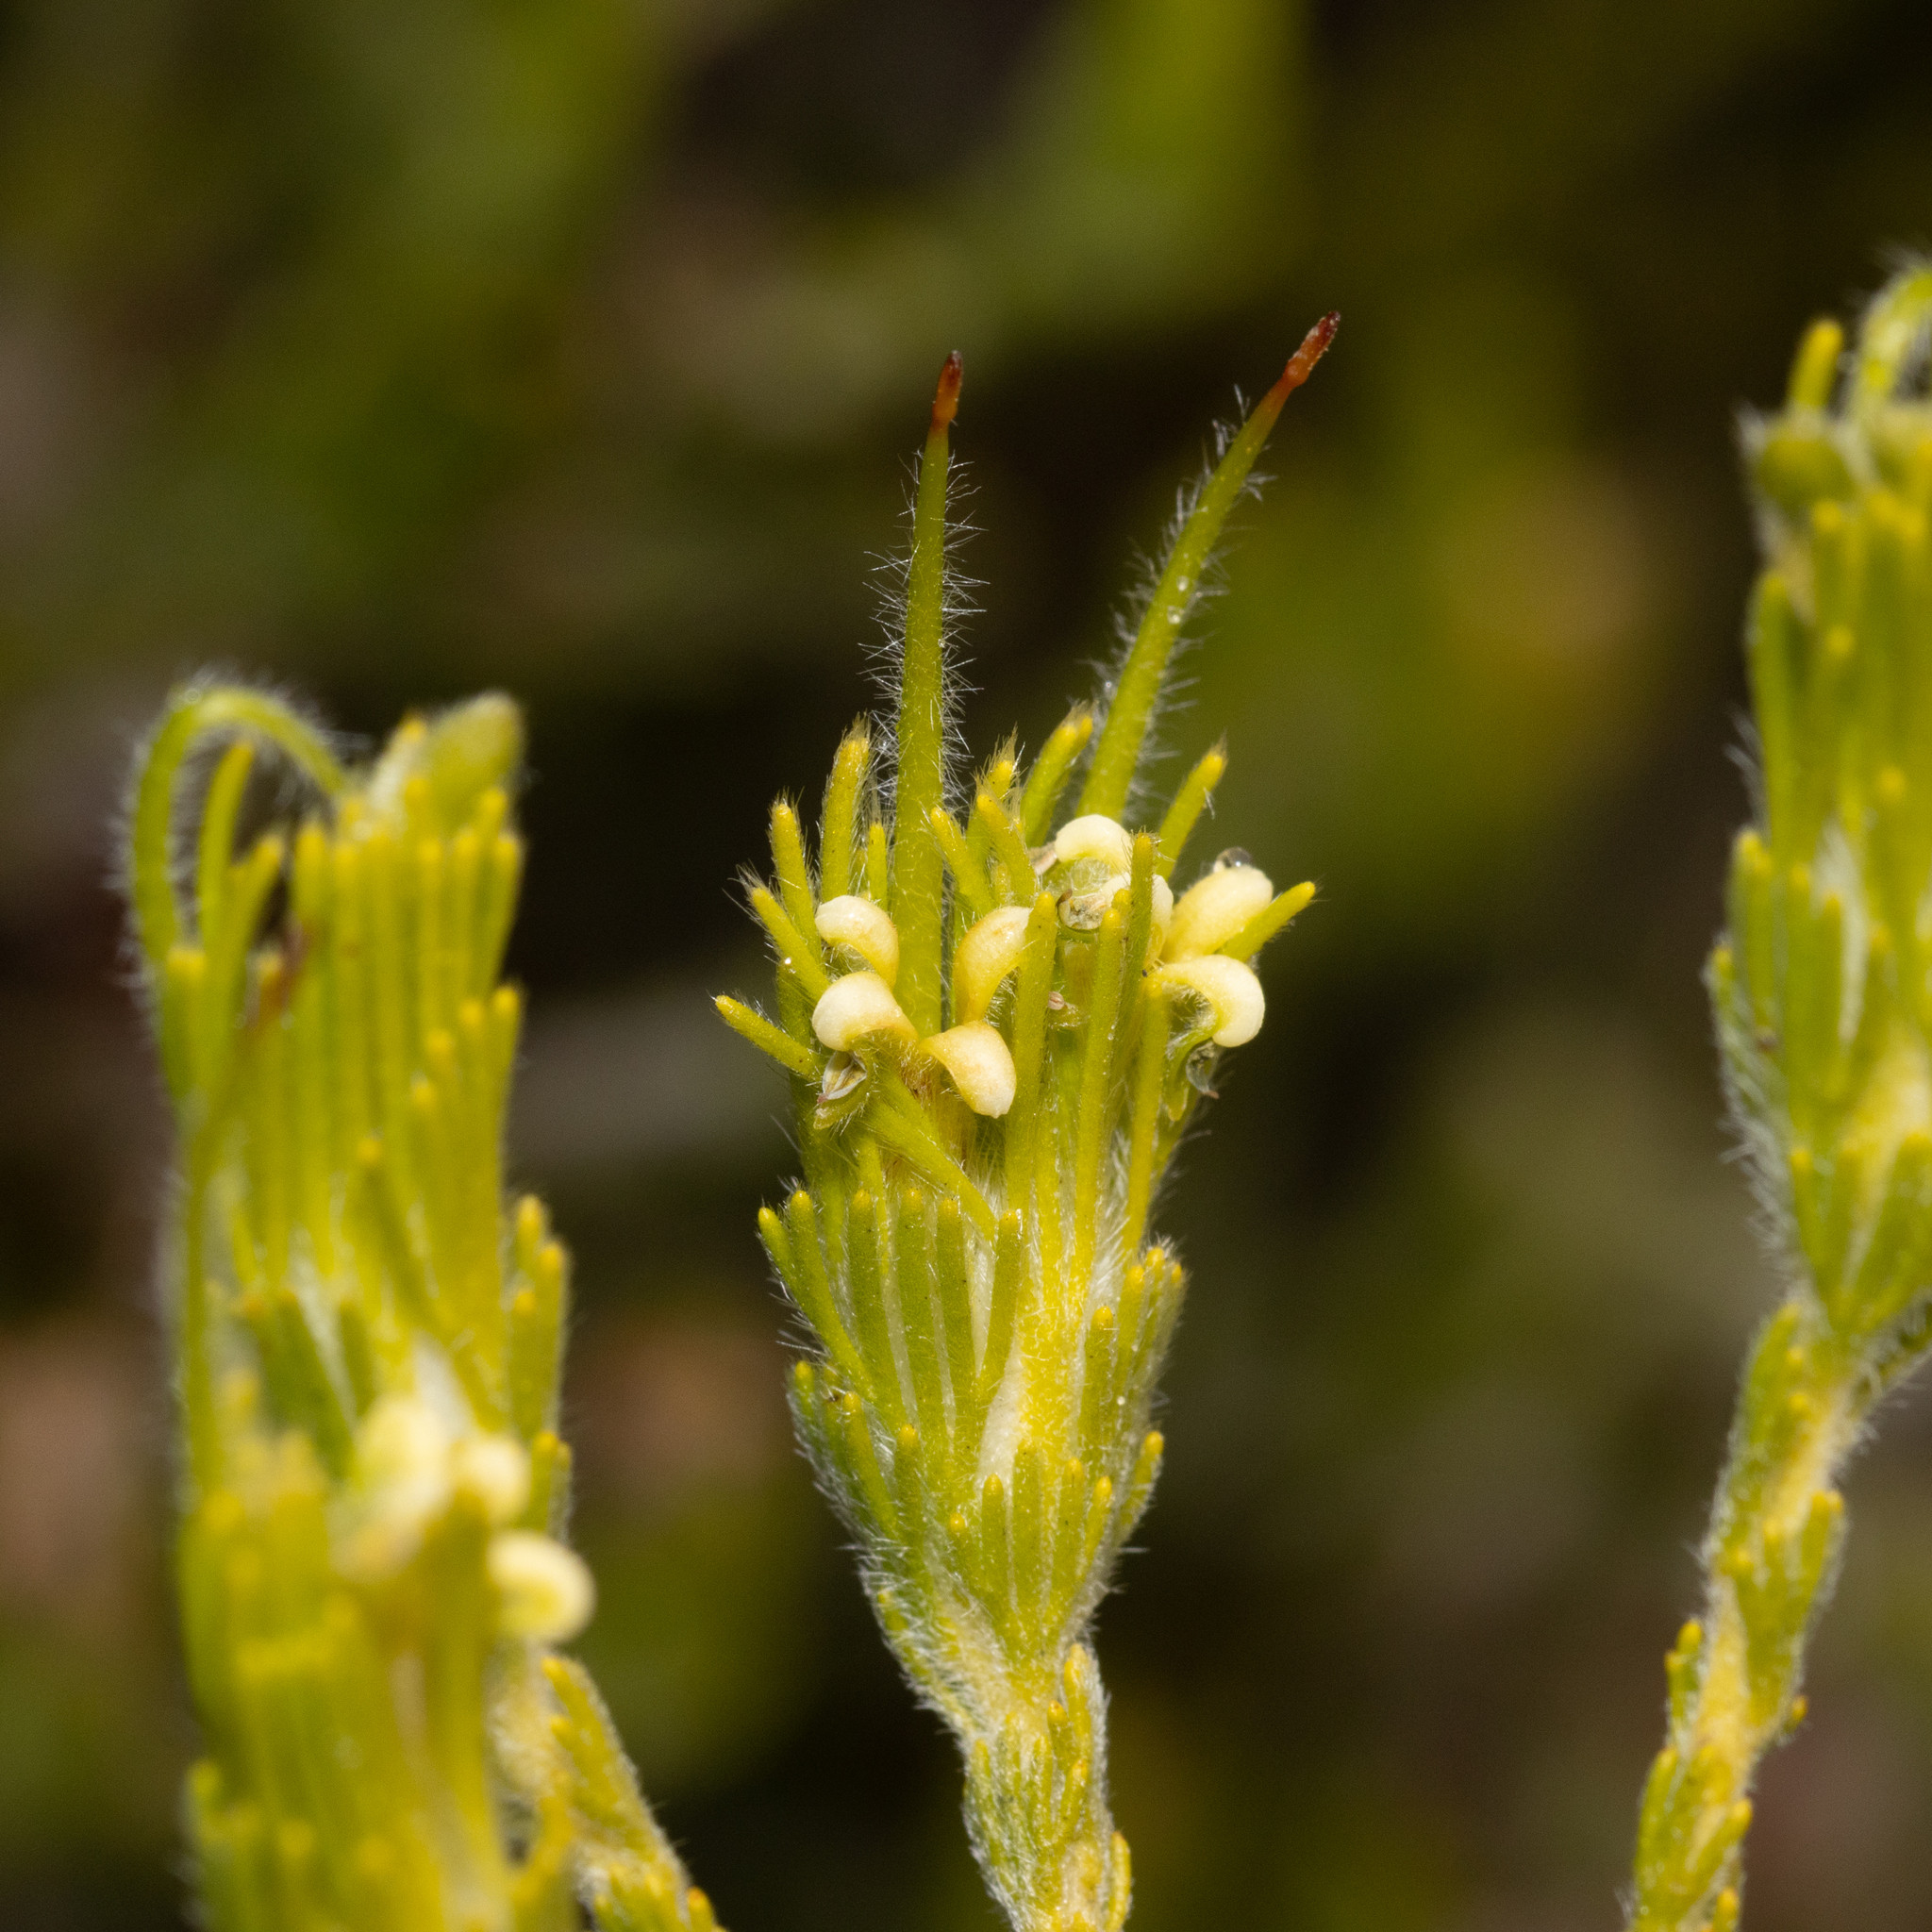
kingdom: Plantae
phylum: Tracheophyta
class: Magnoliopsida
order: Proteales
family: Proteaceae
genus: Adenanthos
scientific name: Adenanthos terminalis
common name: Yellow gland-flower
